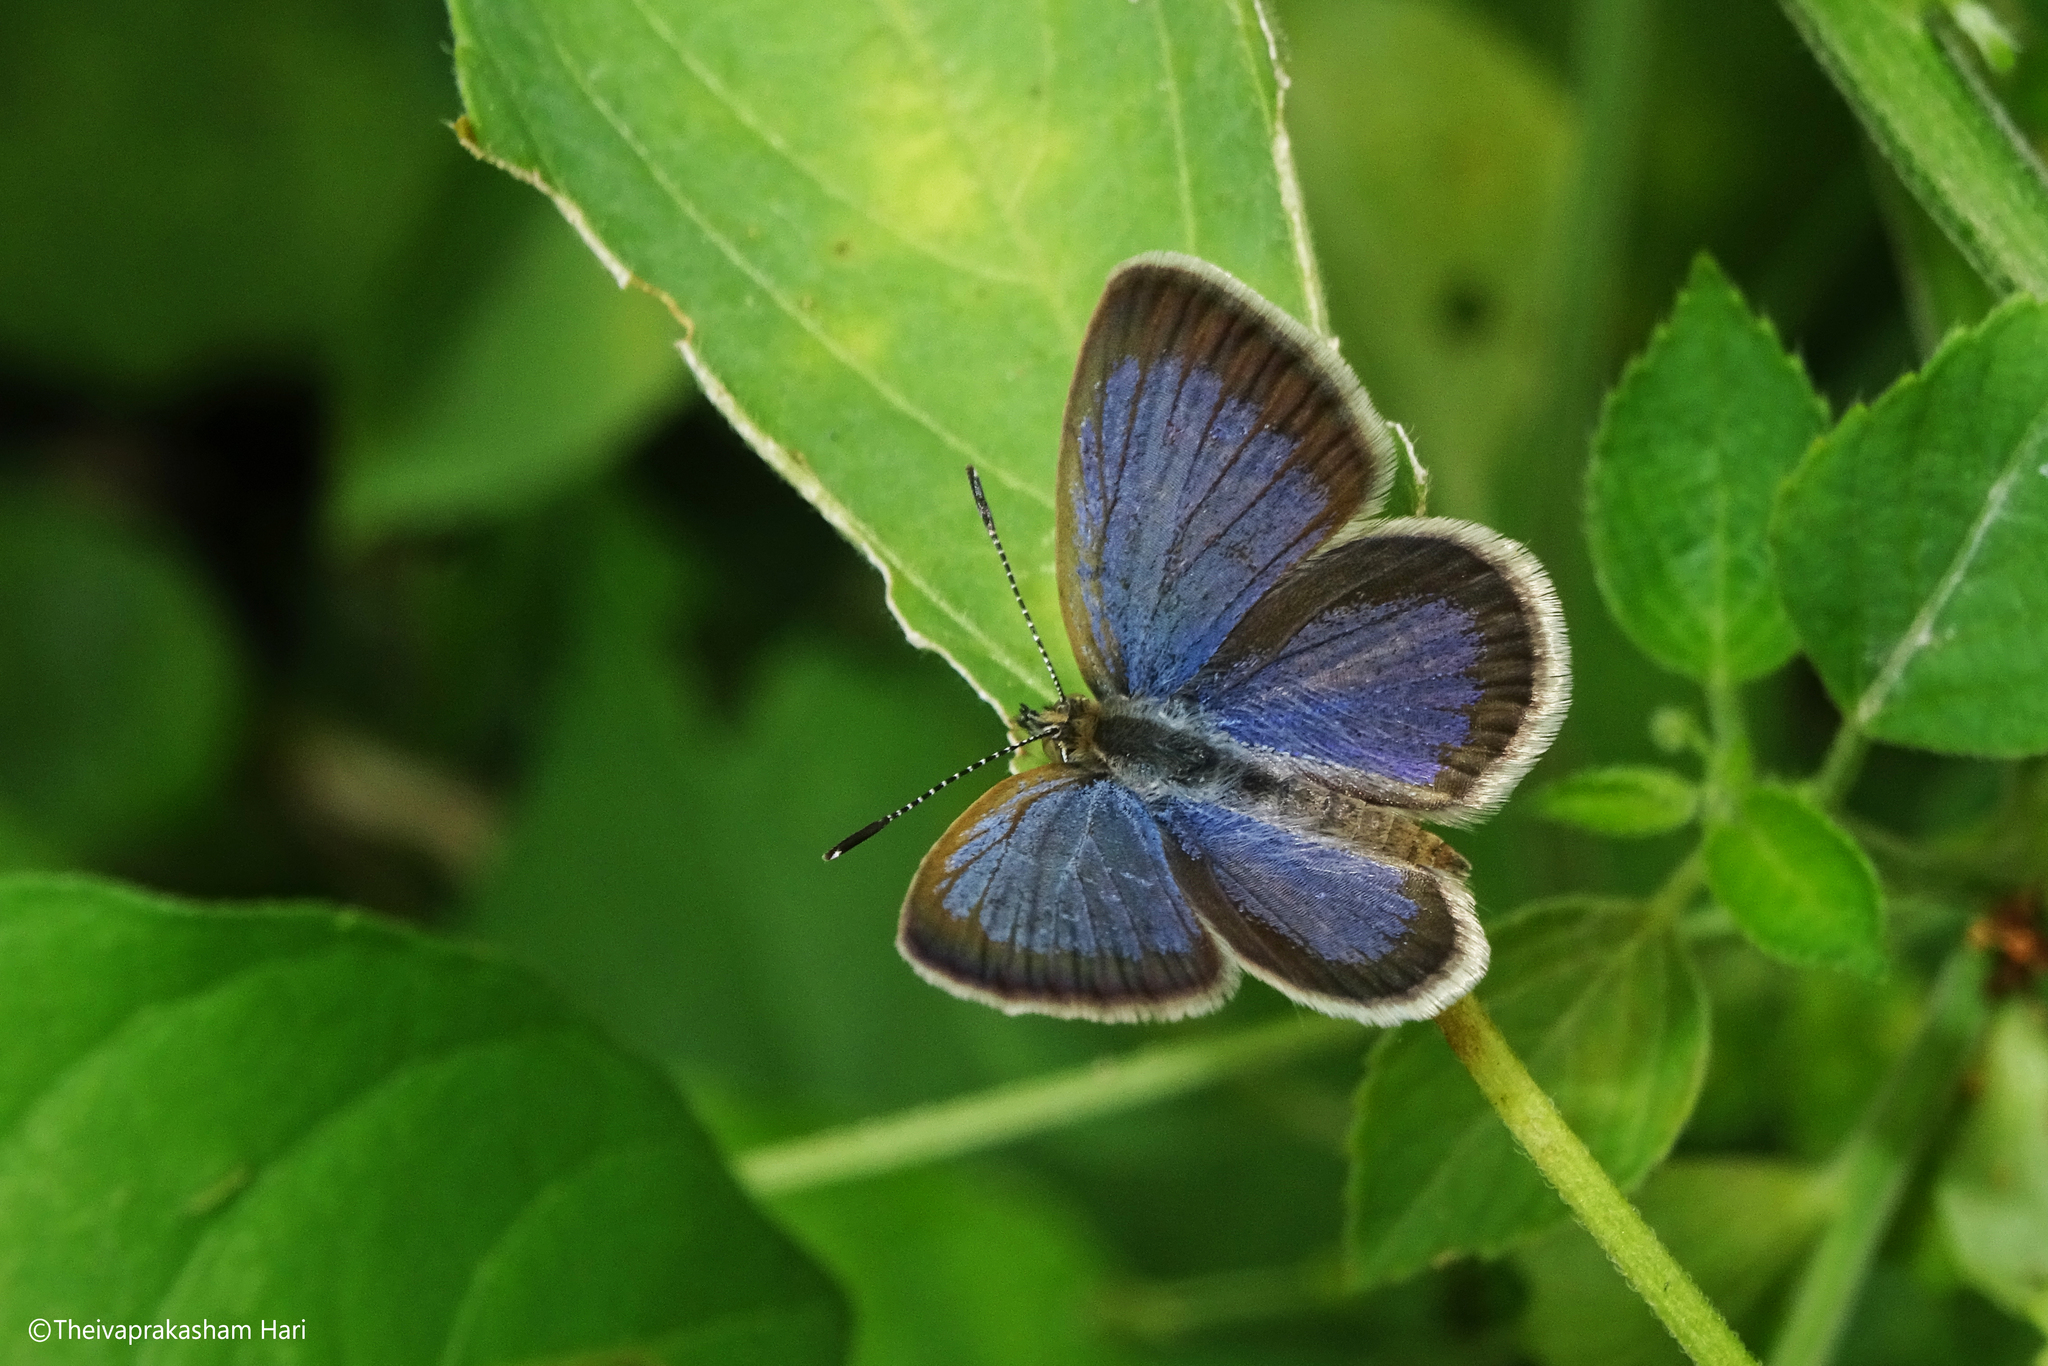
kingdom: Animalia
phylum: Arthropoda
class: Insecta
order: Lepidoptera
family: Lycaenidae
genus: Zizeeria
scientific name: Zizeeria karsandra
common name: Dark grass blue
